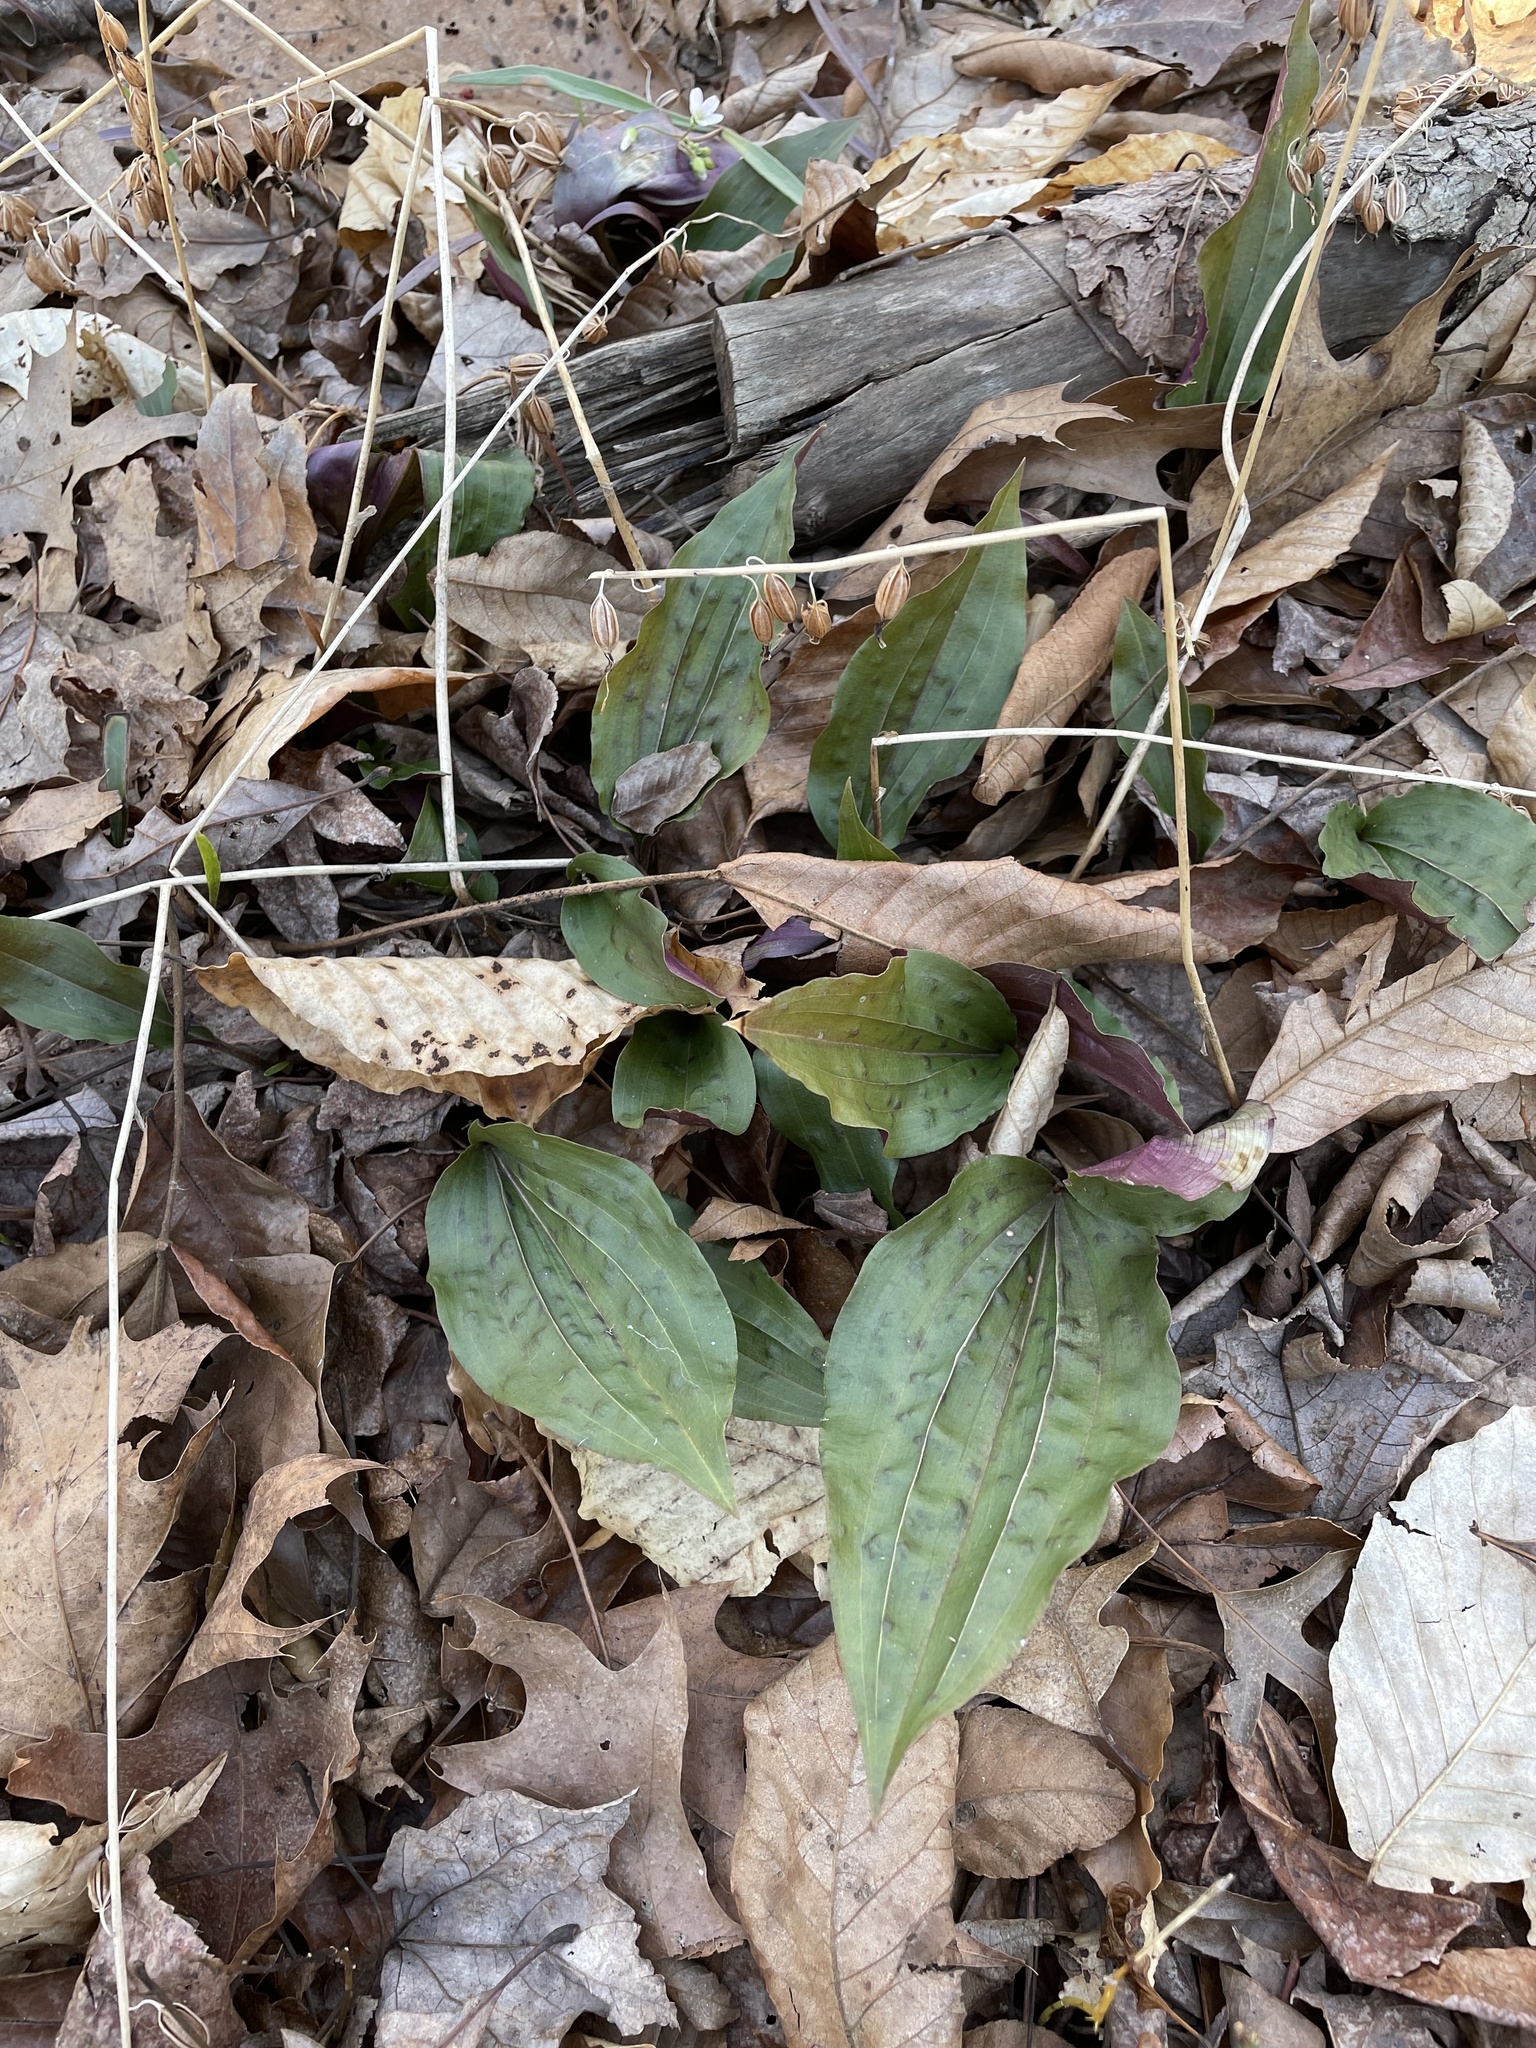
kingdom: Plantae
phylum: Tracheophyta
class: Liliopsida
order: Asparagales
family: Orchidaceae
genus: Tipularia
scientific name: Tipularia discolor
